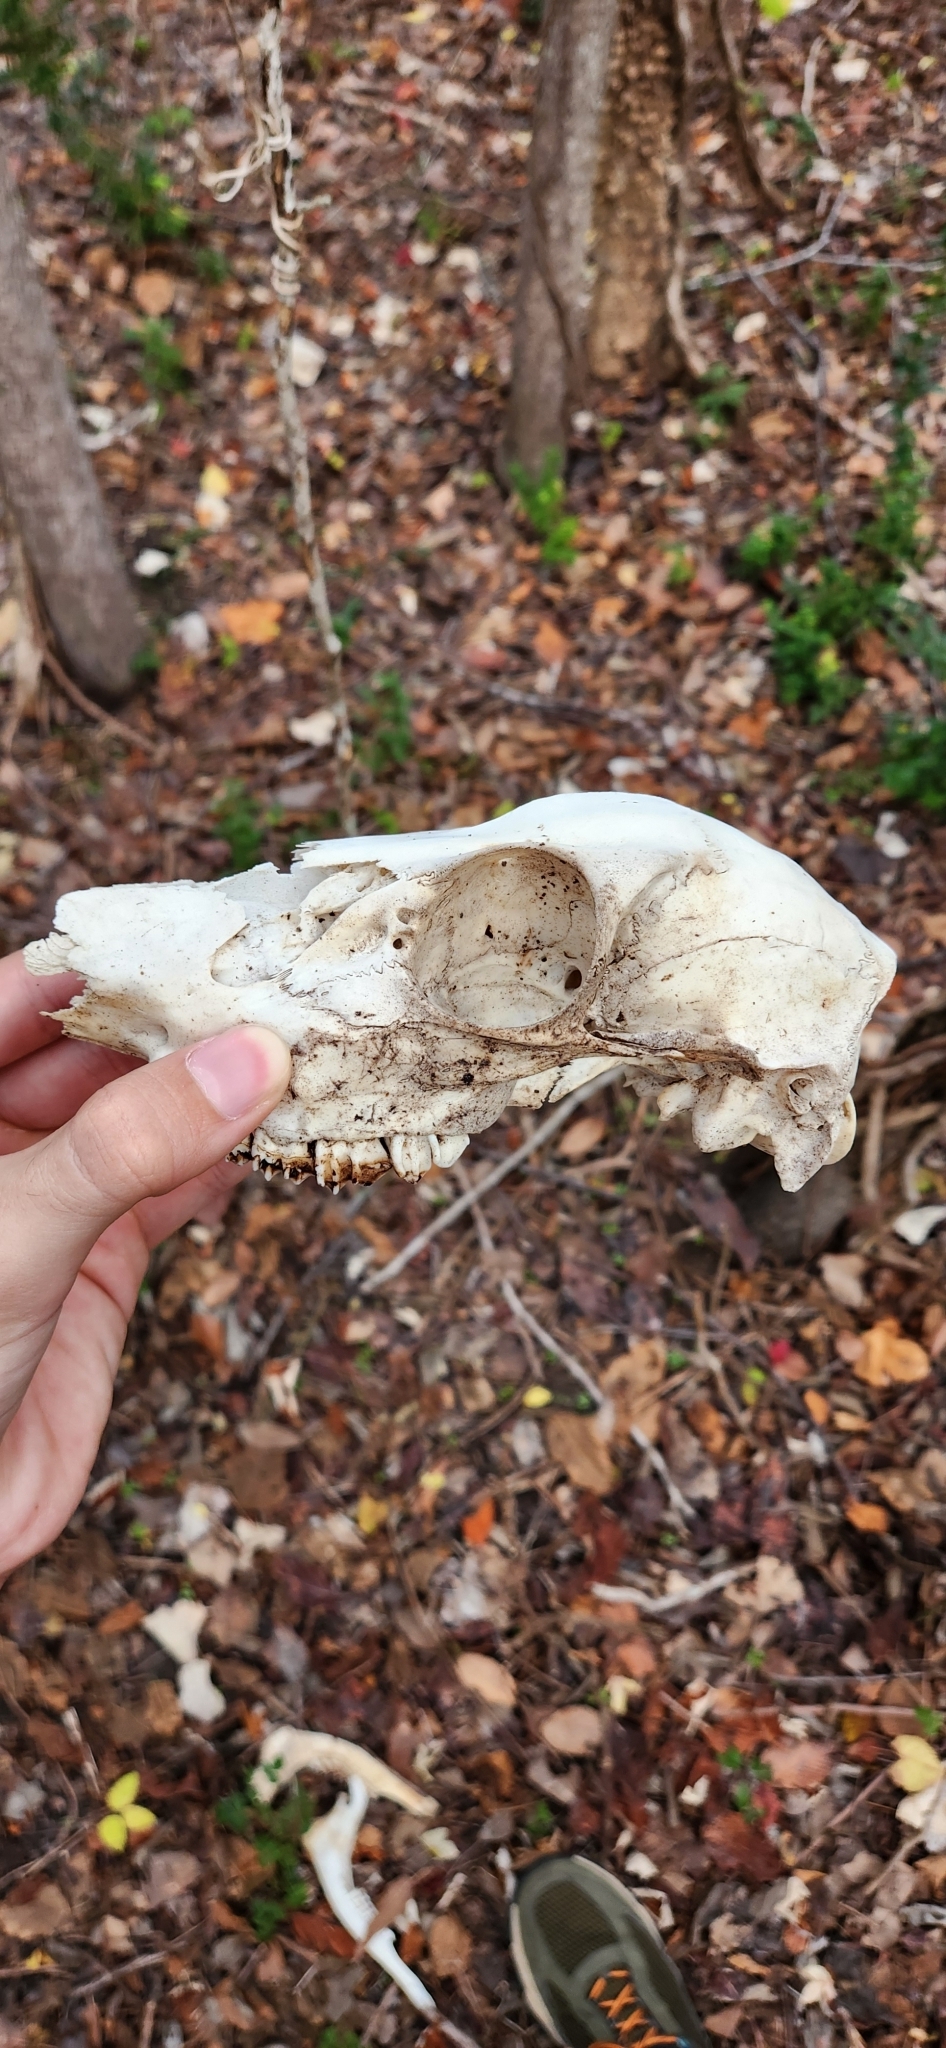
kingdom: Animalia
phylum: Chordata
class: Mammalia
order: Artiodactyla
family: Cervidae
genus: Odocoileus
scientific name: Odocoileus virginianus
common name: White-tailed deer
